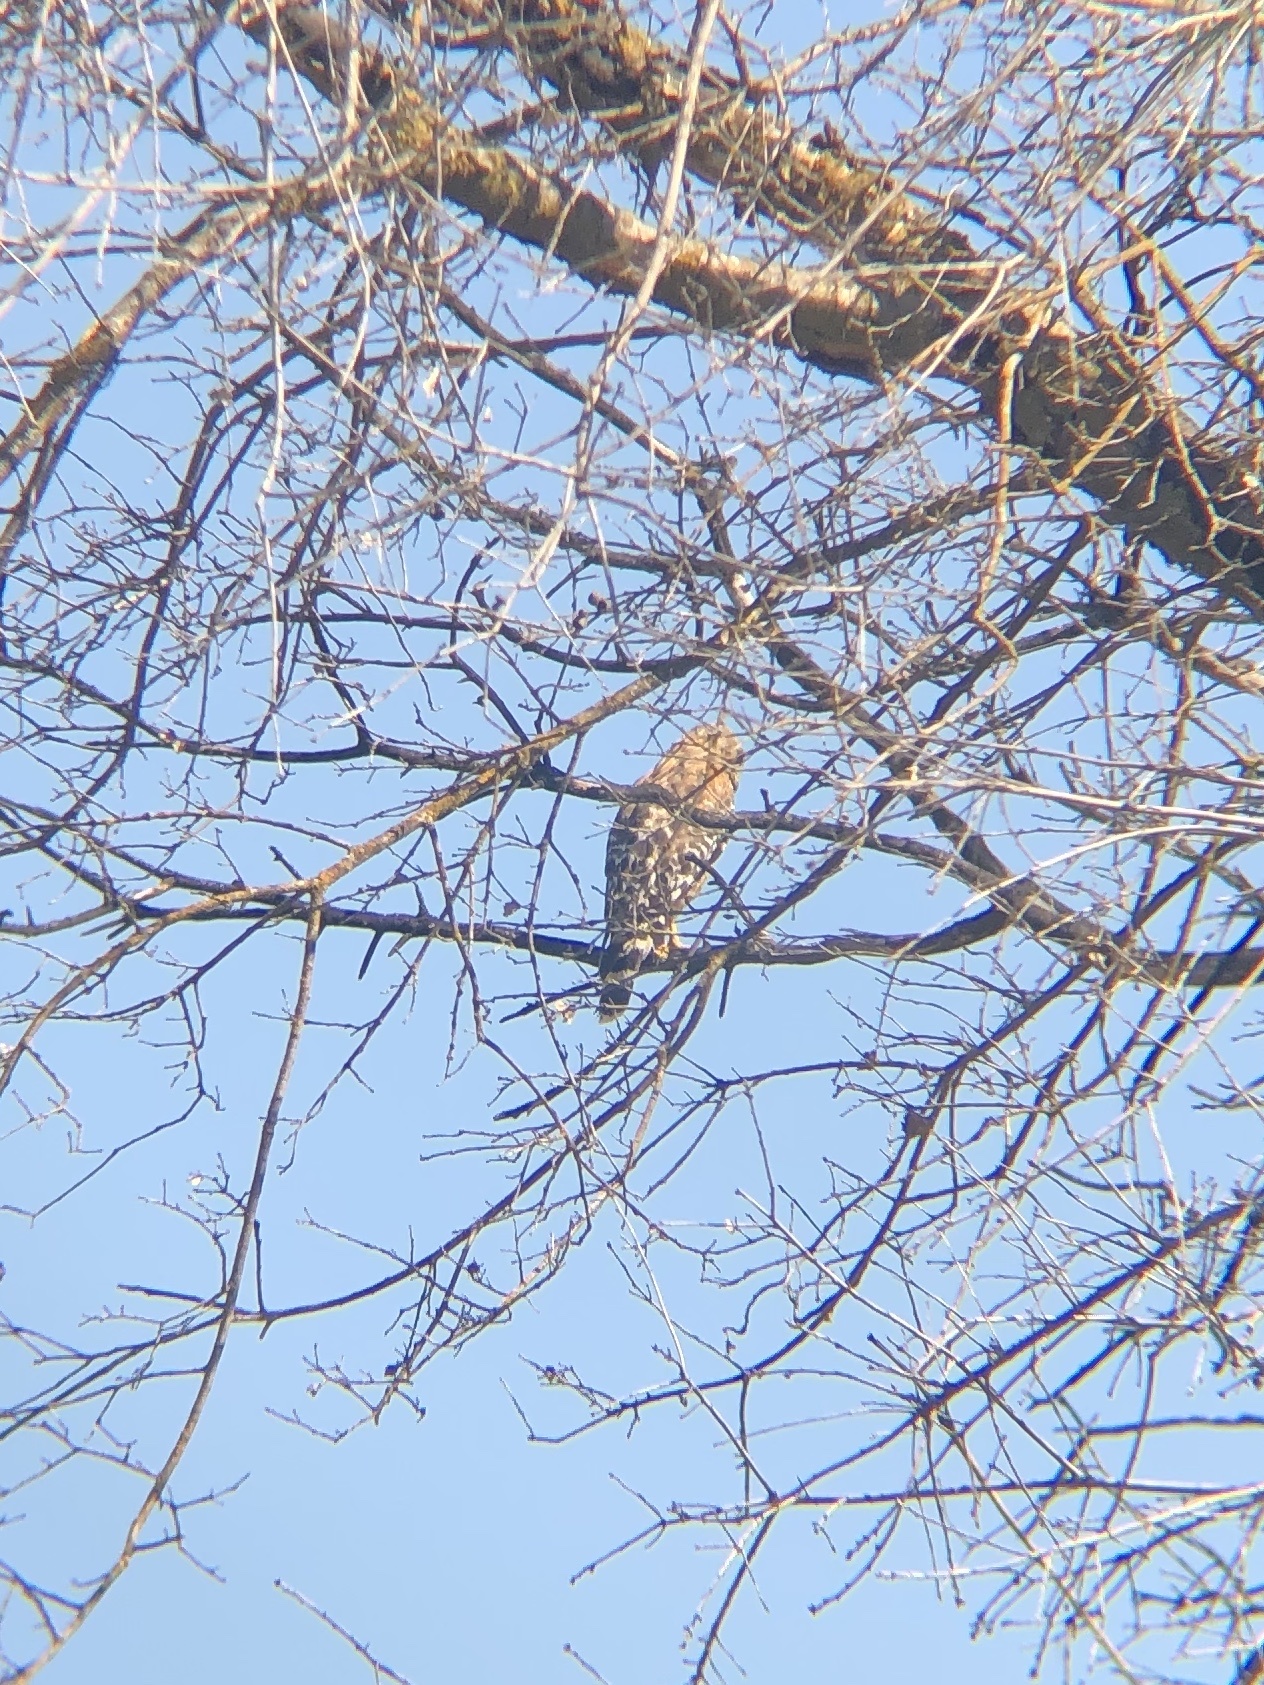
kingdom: Animalia
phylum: Chordata
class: Aves
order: Accipitriformes
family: Accipitridae
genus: Buteo
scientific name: Buteo lineatus
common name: Red-shouldered hawk
